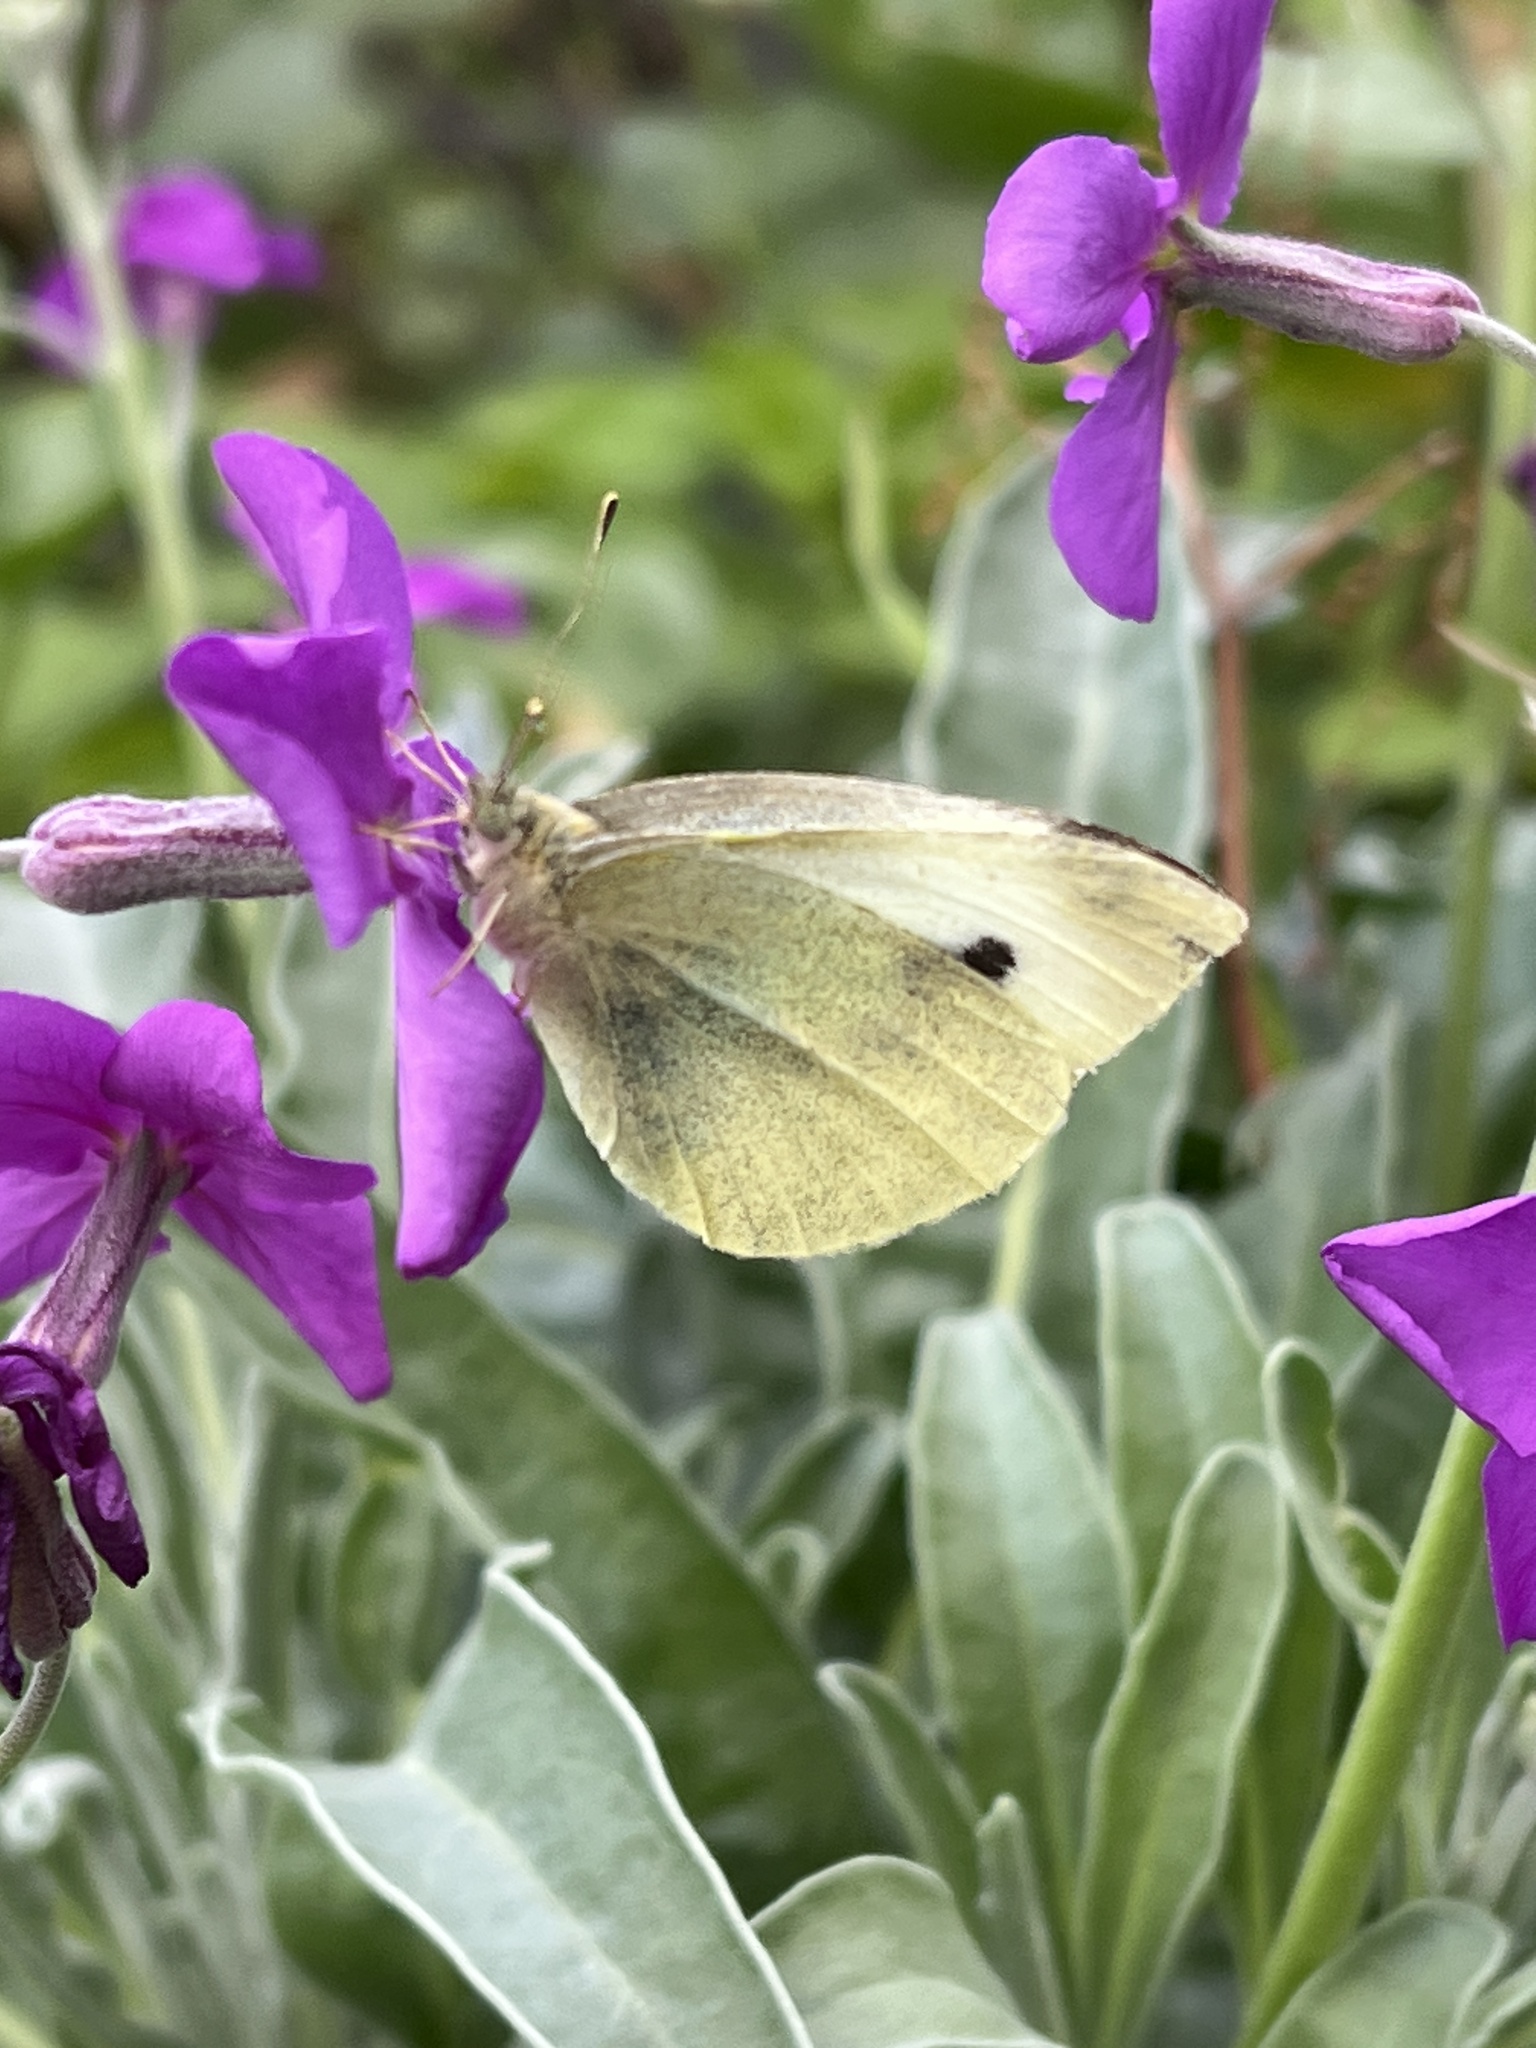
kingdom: Animalia
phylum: Arthropoda
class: Insecta
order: Lepidoptera
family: Pieridae
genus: Pieris
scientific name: Pieris rapae
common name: Small white
